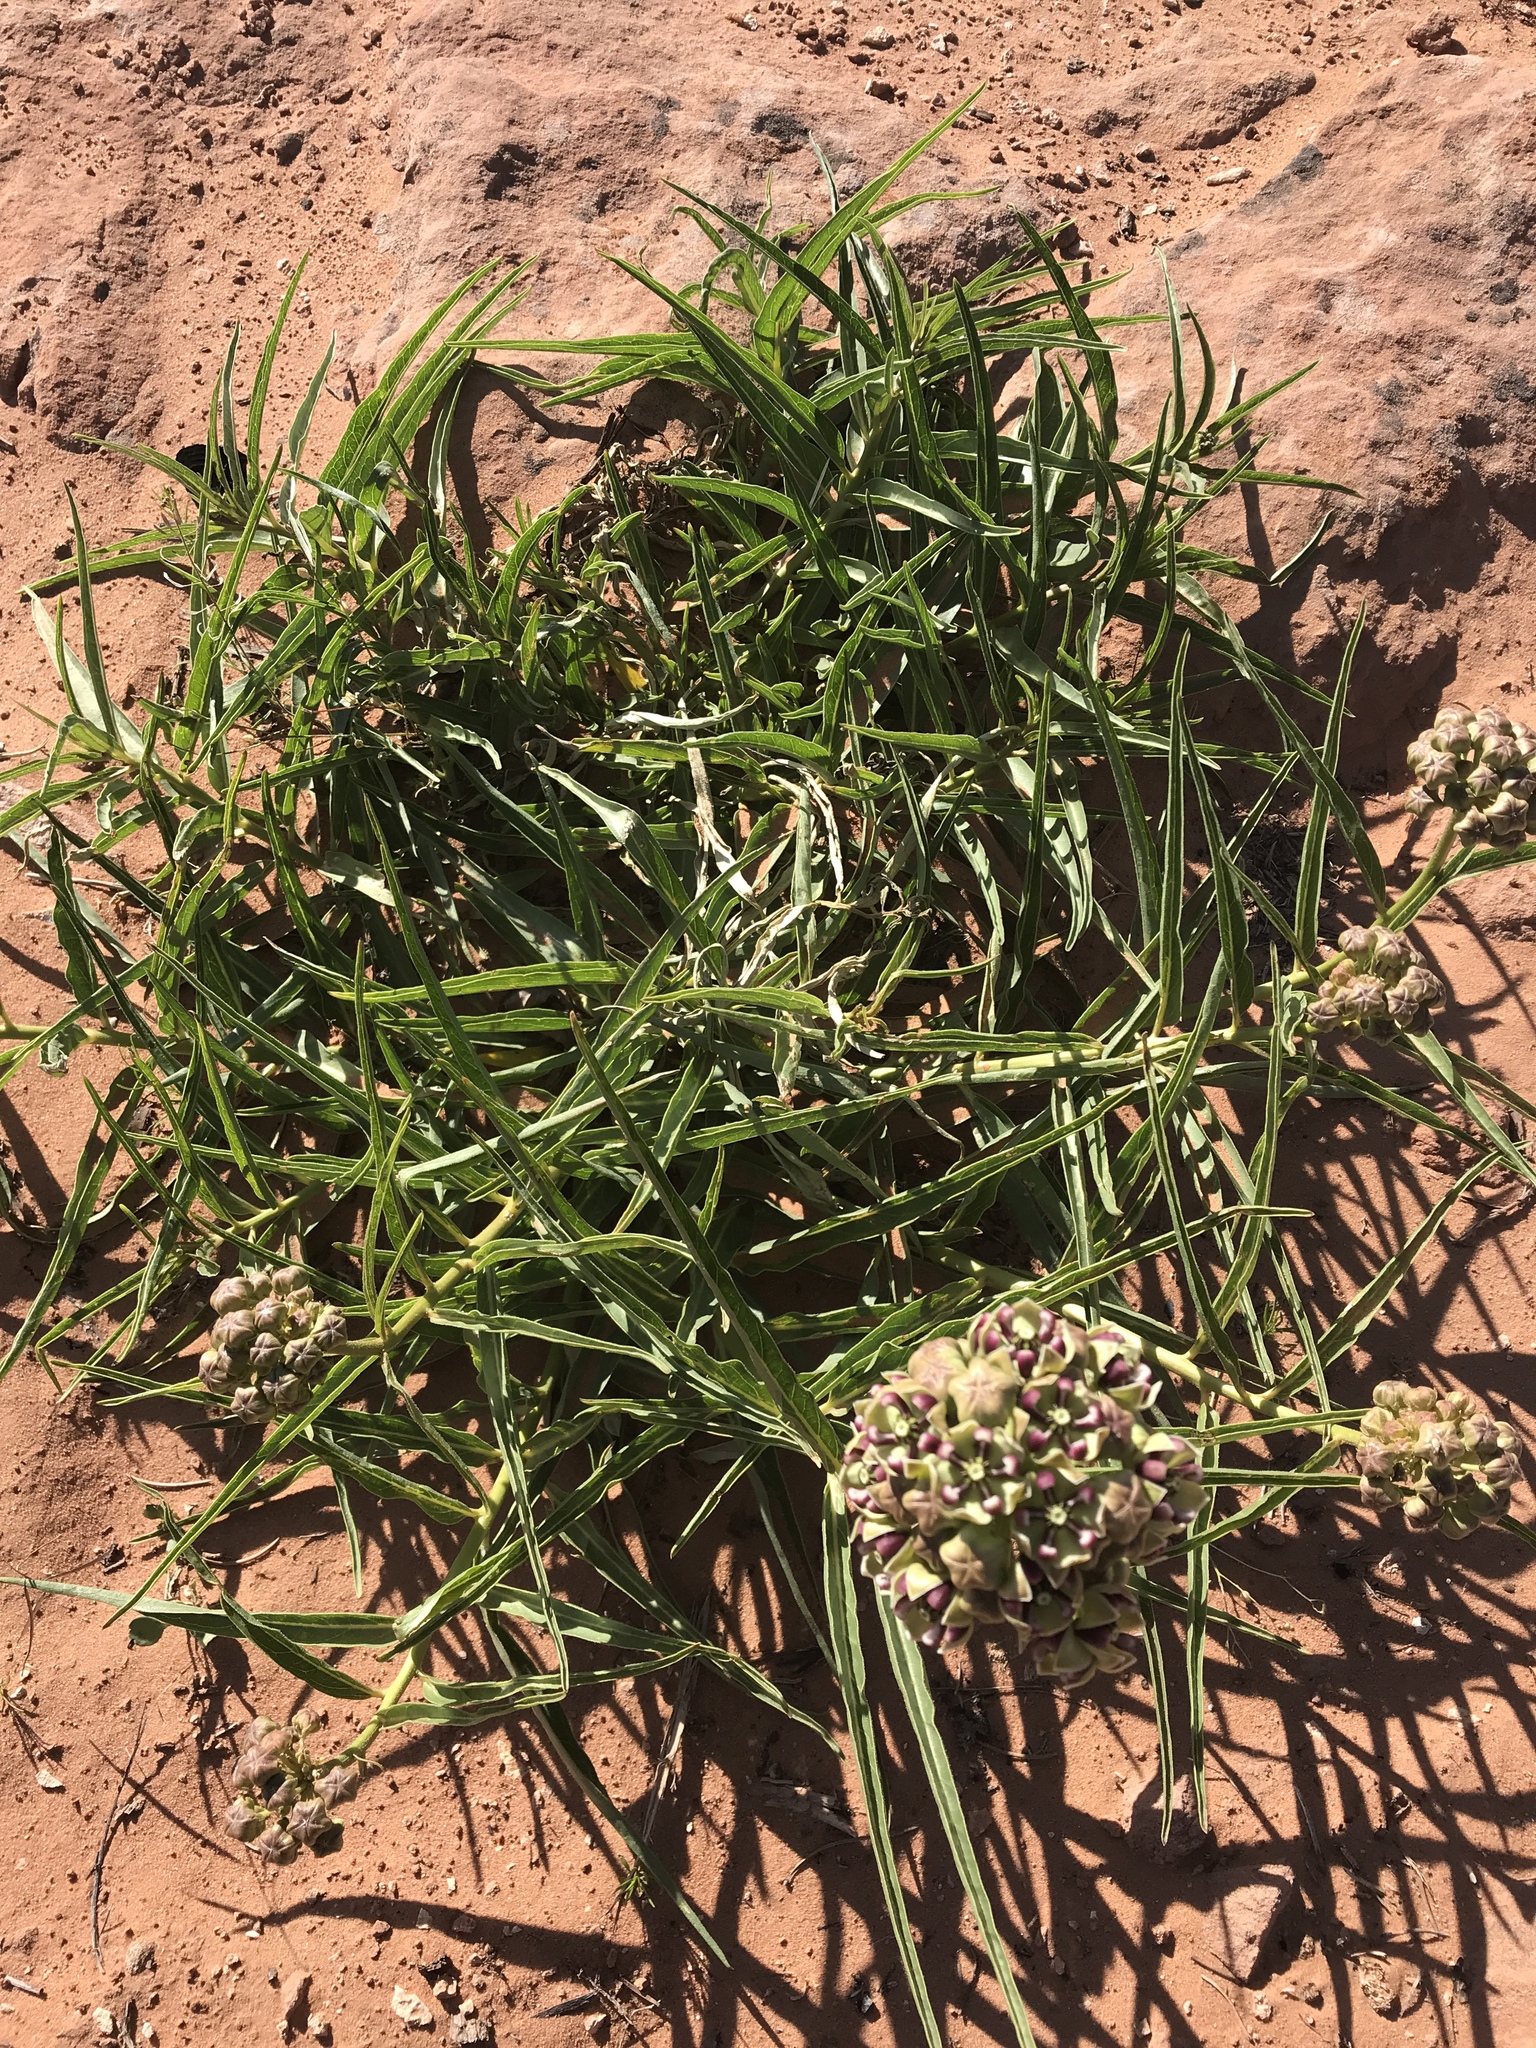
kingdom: Plantae
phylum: Tracheophyta
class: Magnoliopsida
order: Gentianales
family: Apocynaceae
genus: Asclepias
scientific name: Asclepias asperula
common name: Antelope horns
